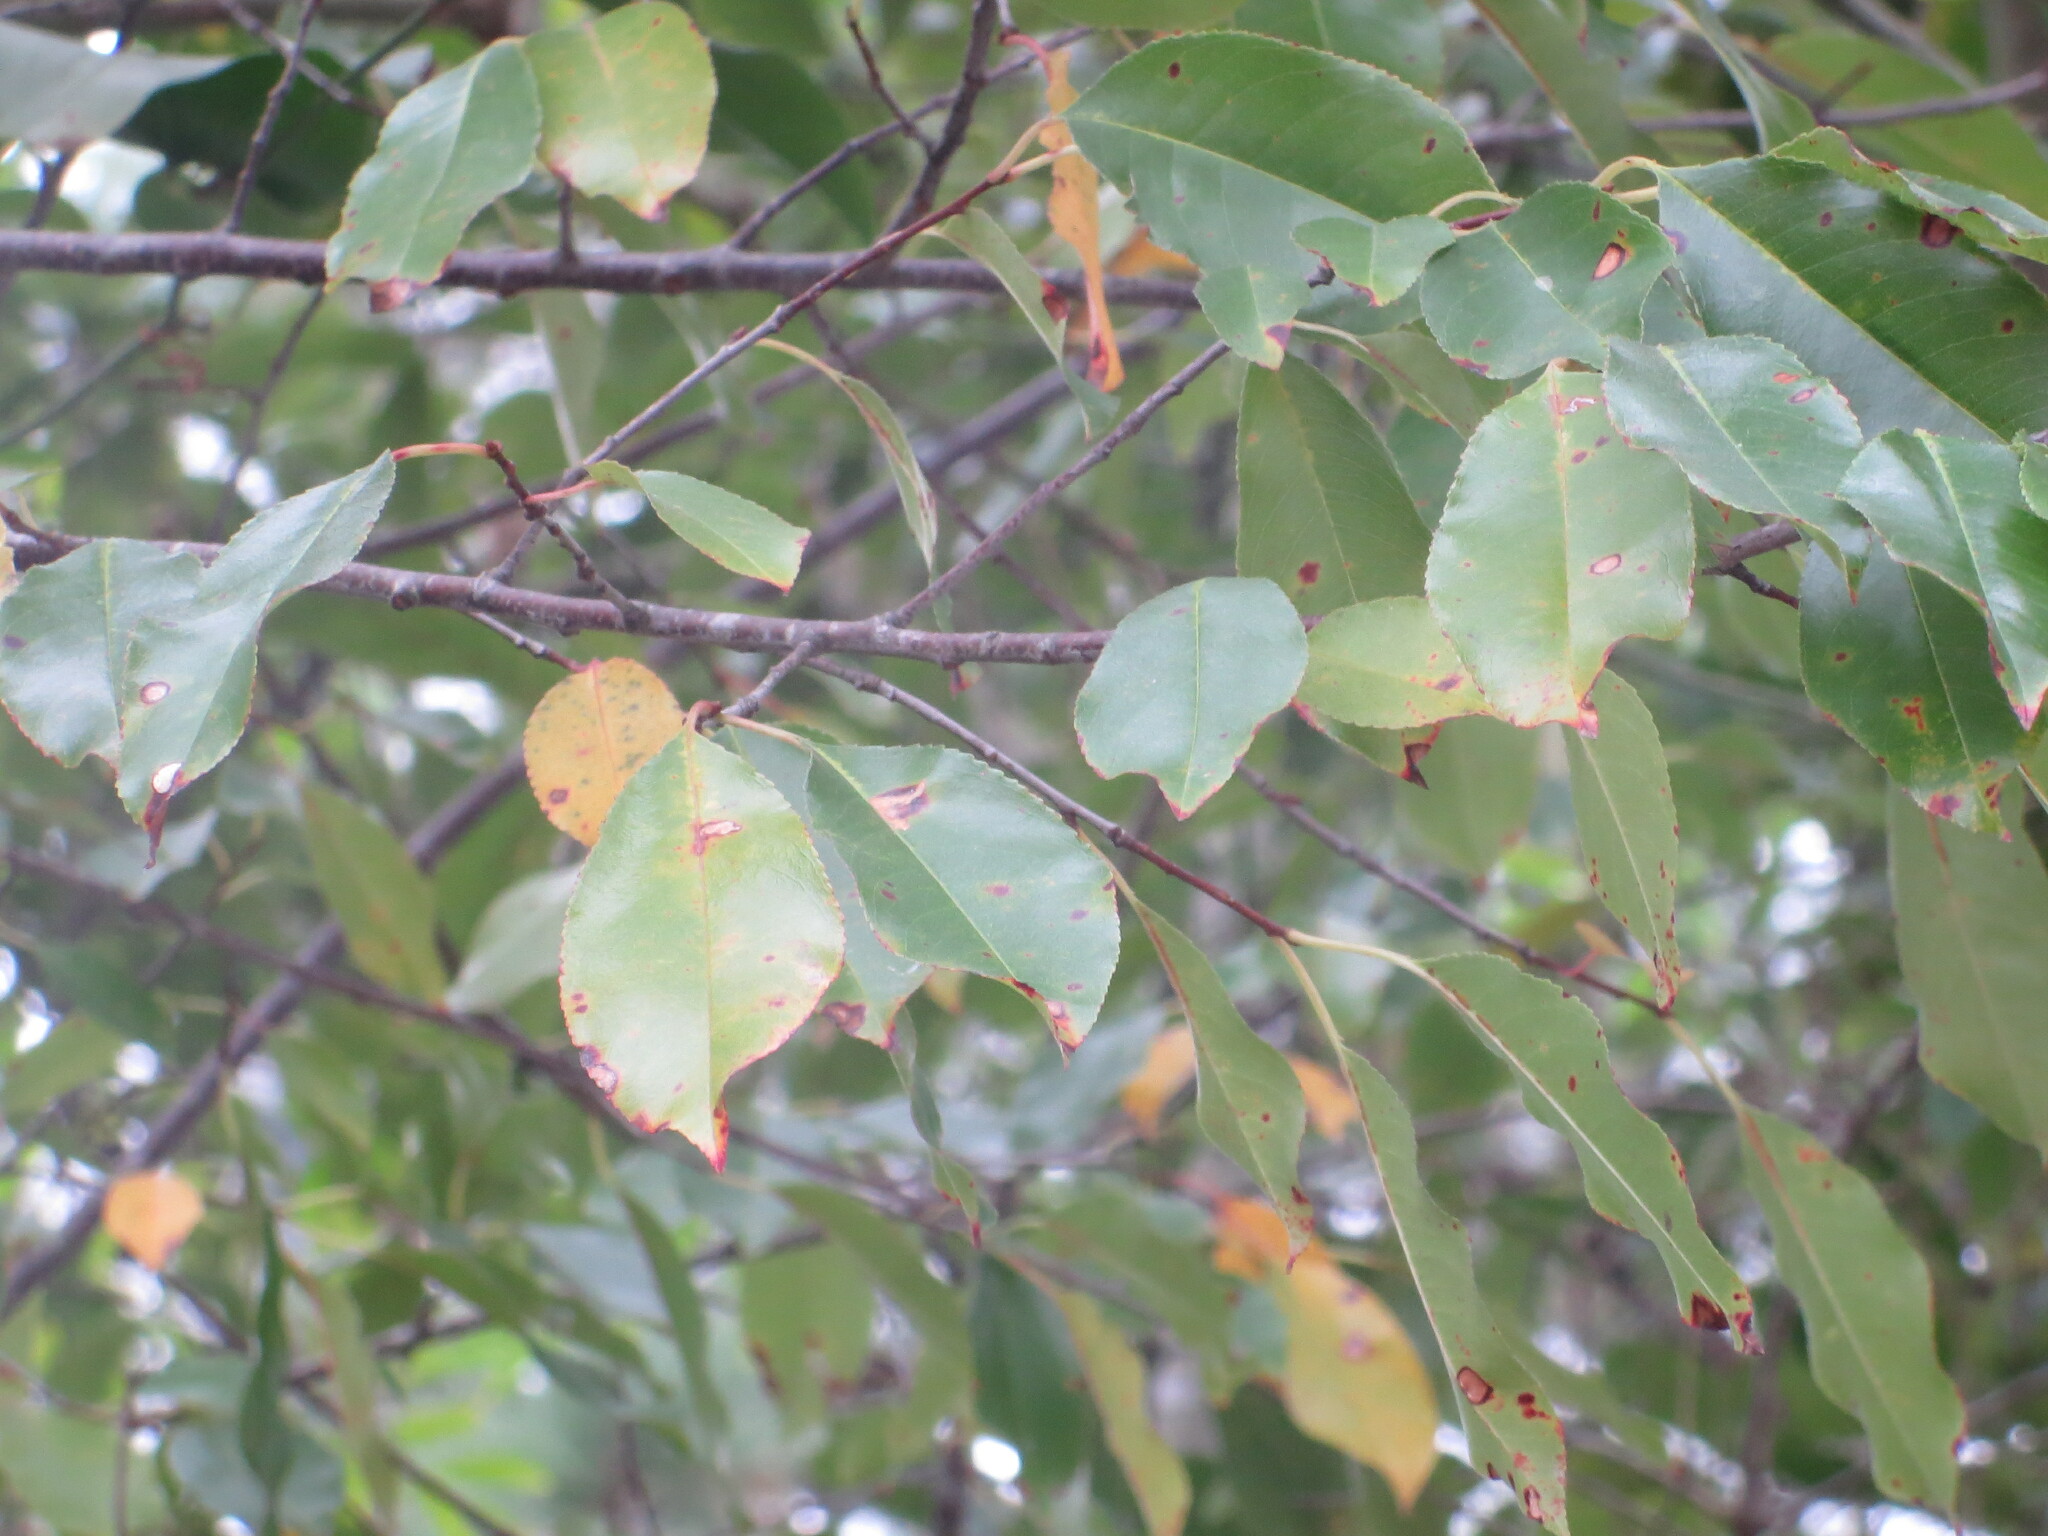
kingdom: Plantae
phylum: Tracheophyta
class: Magnoliopsida
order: Rosales
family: Rosaceae
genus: Prunus
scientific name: Prunus serotina
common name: Black cherry
